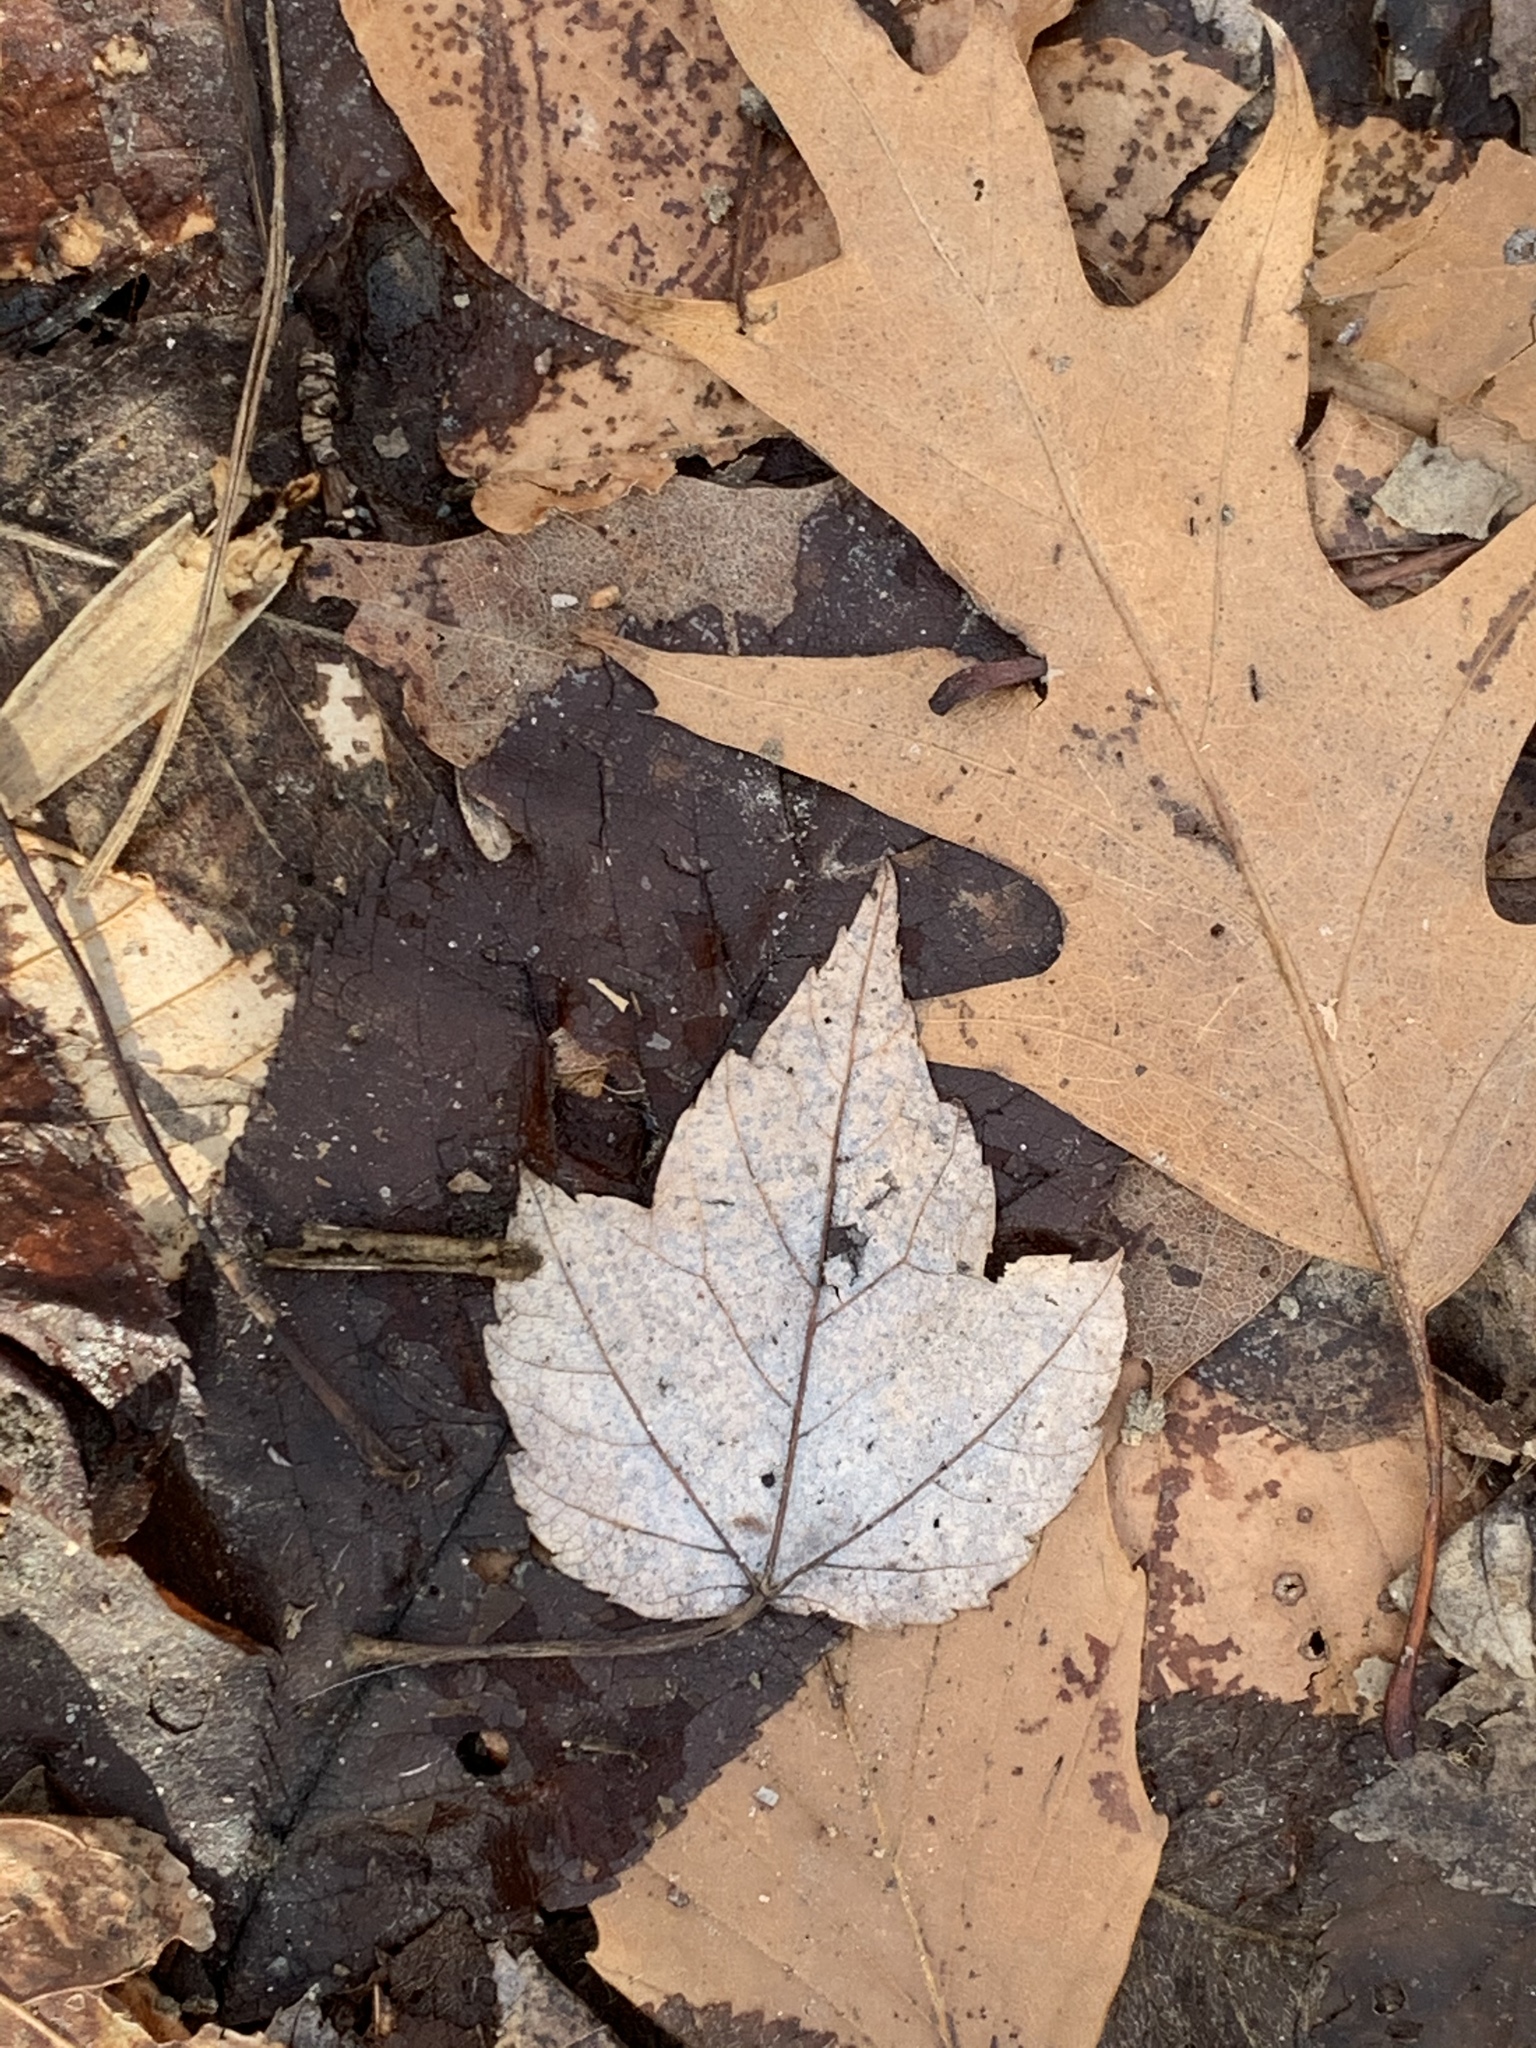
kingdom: Plantae
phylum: Tracheophyta
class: Magnoliopsida
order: Sapindales
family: Sapindaceae
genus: Acer
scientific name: Acer rubrum
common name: Red maple
